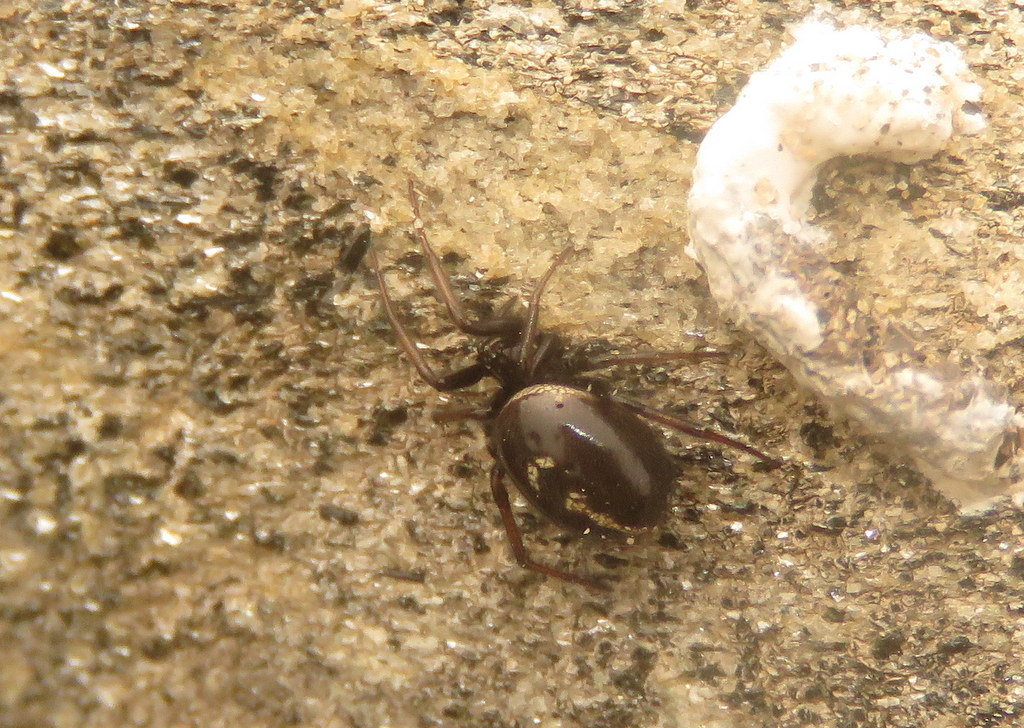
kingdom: Animalia
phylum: Arthropoda
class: Arachnida
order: Araneae
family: Theridiidae
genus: Steatoda
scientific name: Steatoda ancorata
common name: Cobweb spiders
